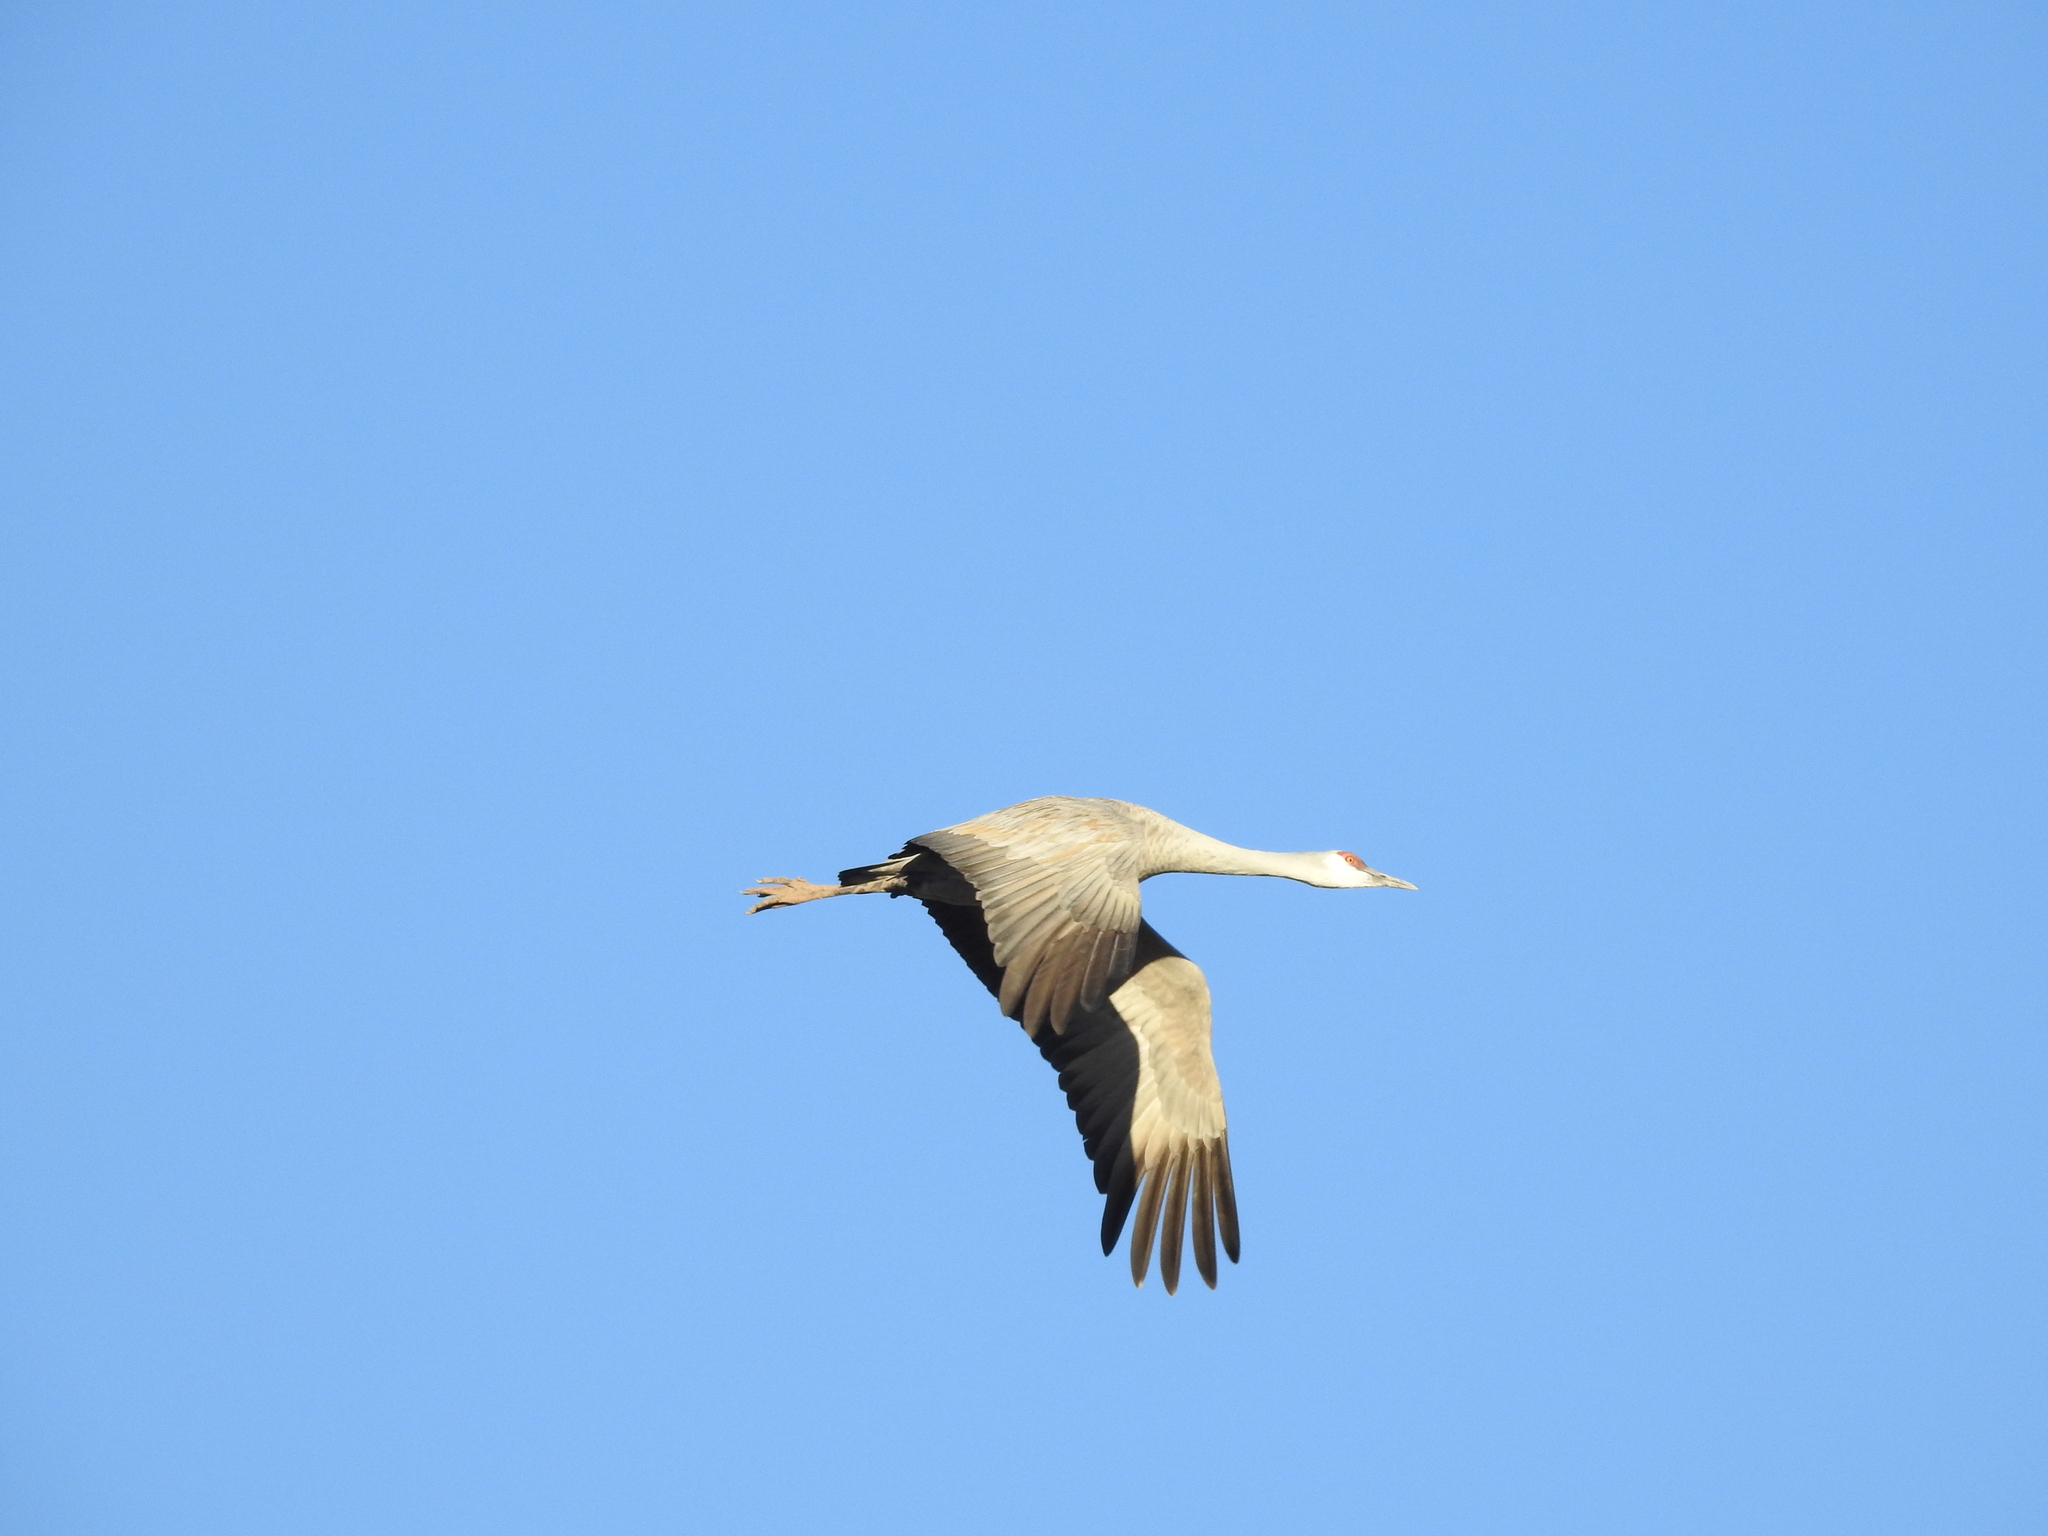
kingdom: Animalia
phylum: Chordata
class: Aves
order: Gruiformes
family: Gruidae
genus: Grus
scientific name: Grus canadensis
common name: Sandhill crane
